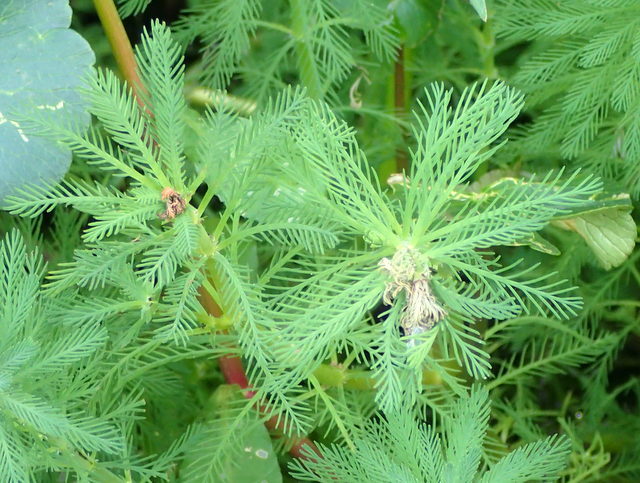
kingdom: Plantae
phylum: Tracheophyta
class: Magnoliopsida
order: Saxifragales
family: Haloragaceae
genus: Myriophyllum
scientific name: Myriophyllum aquaticum
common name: Parrot's feather
